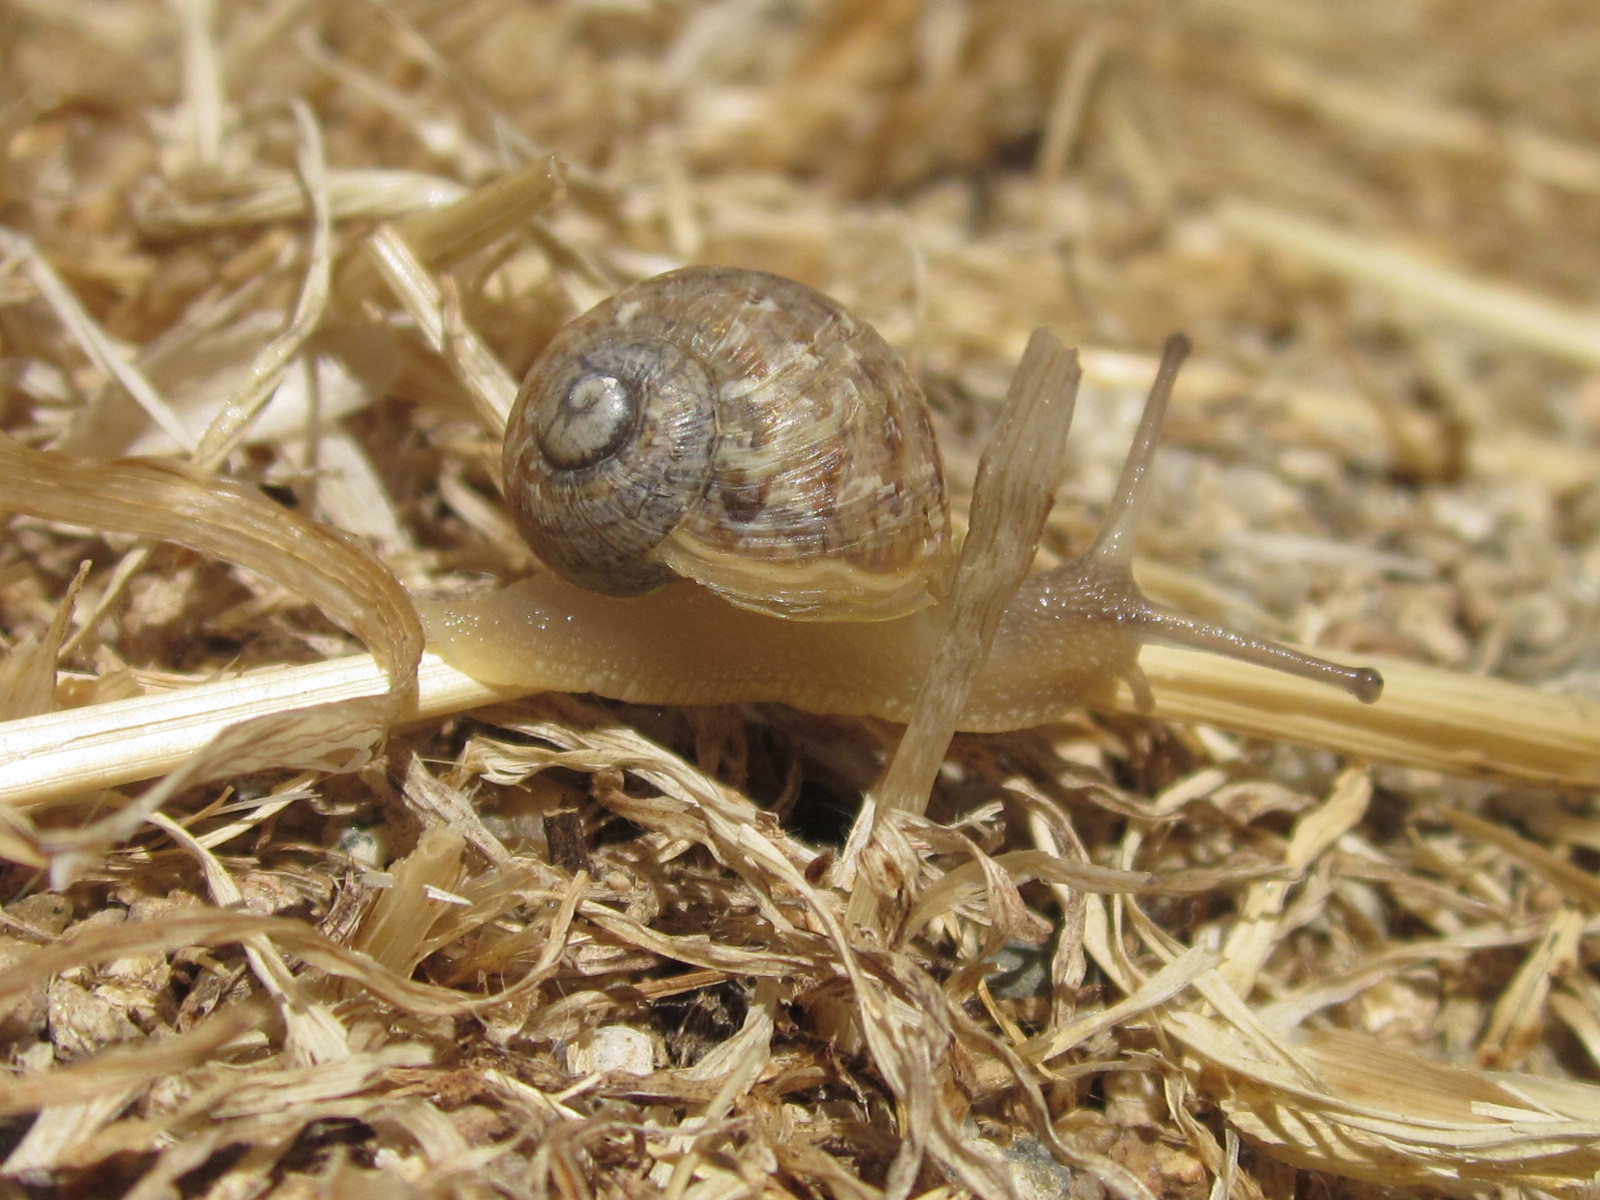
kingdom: Animalia
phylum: Mollusca
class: Gastropoda
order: Stylommatophora
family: Helicidae
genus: Cornu
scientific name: Cornu aspersum
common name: Brown garden snail
